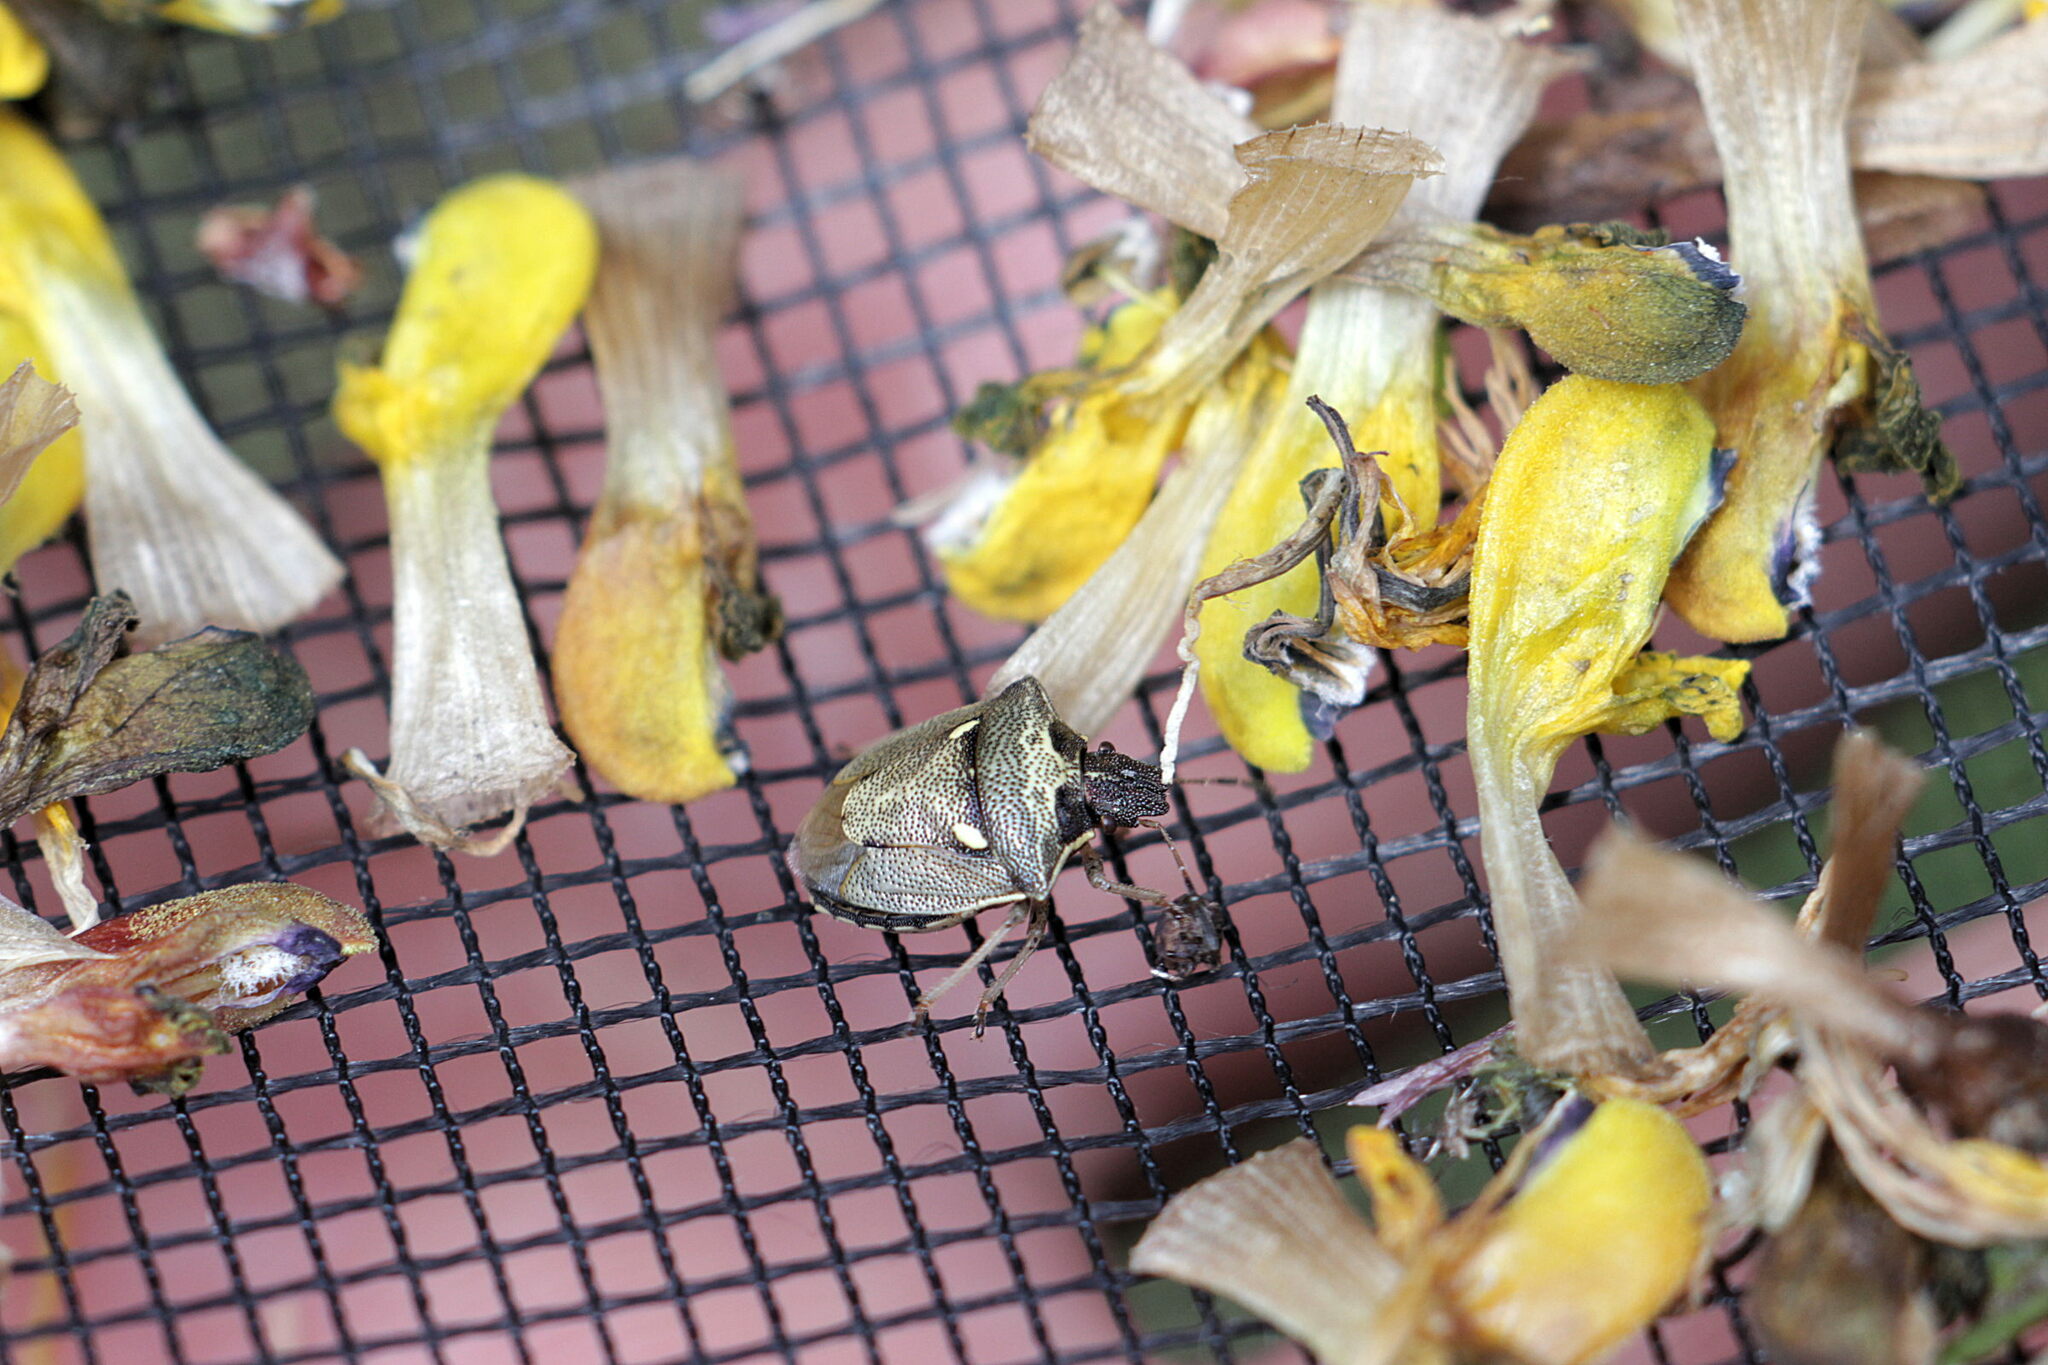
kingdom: Animalia
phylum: Arthropoda
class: Insecta
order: Hemiptera
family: Pentatomidae
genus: Eysarcoris
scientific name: Eysarcoris aeneus
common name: New forest shieldbug
